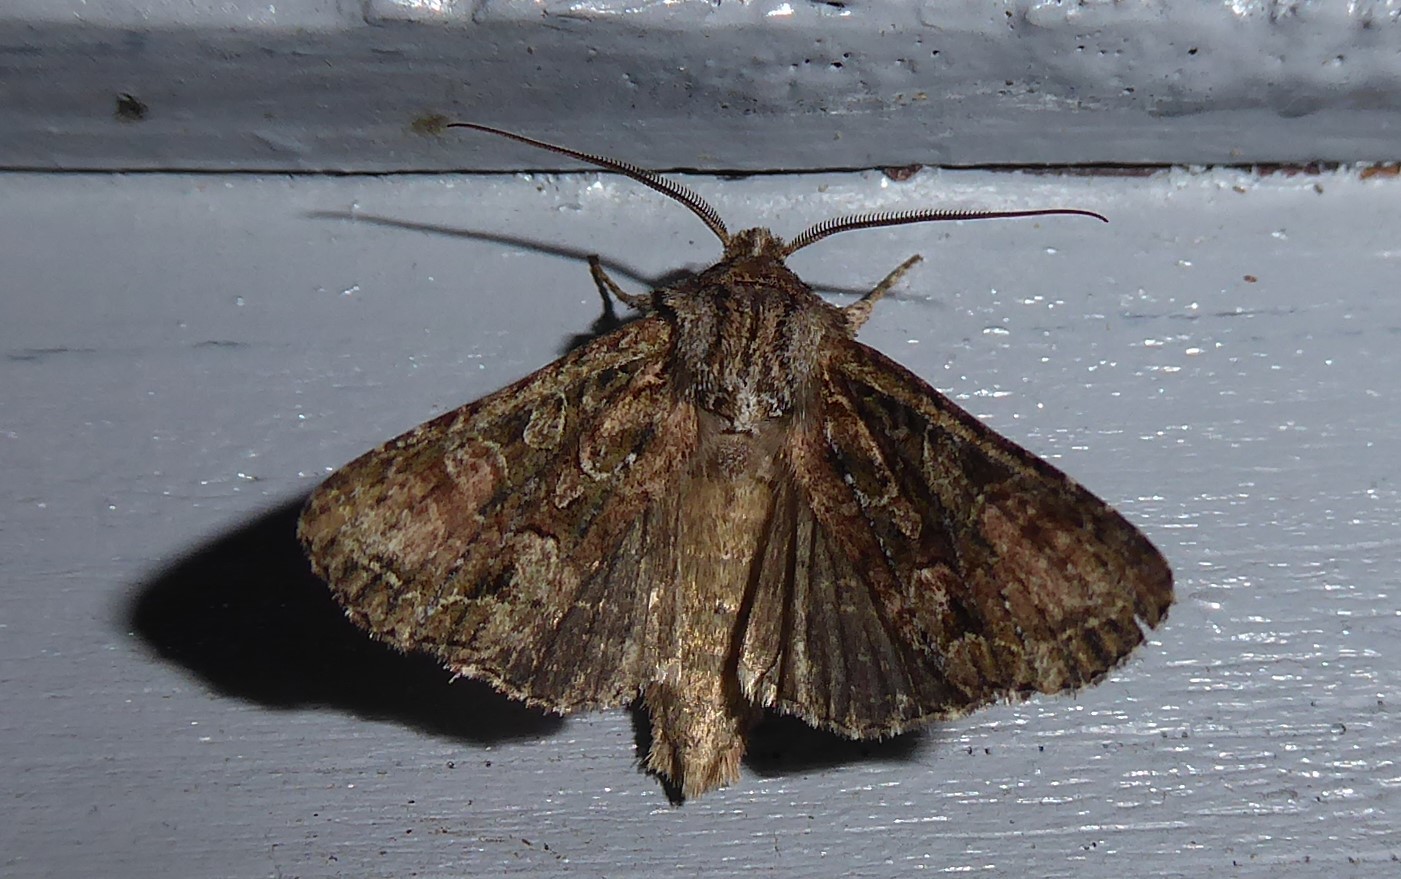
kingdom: Animalia
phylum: Arthropoda
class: Insecta
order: Lepidoptera
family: Noctuidae
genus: Ichneutica
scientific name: Ichneutica mutans
